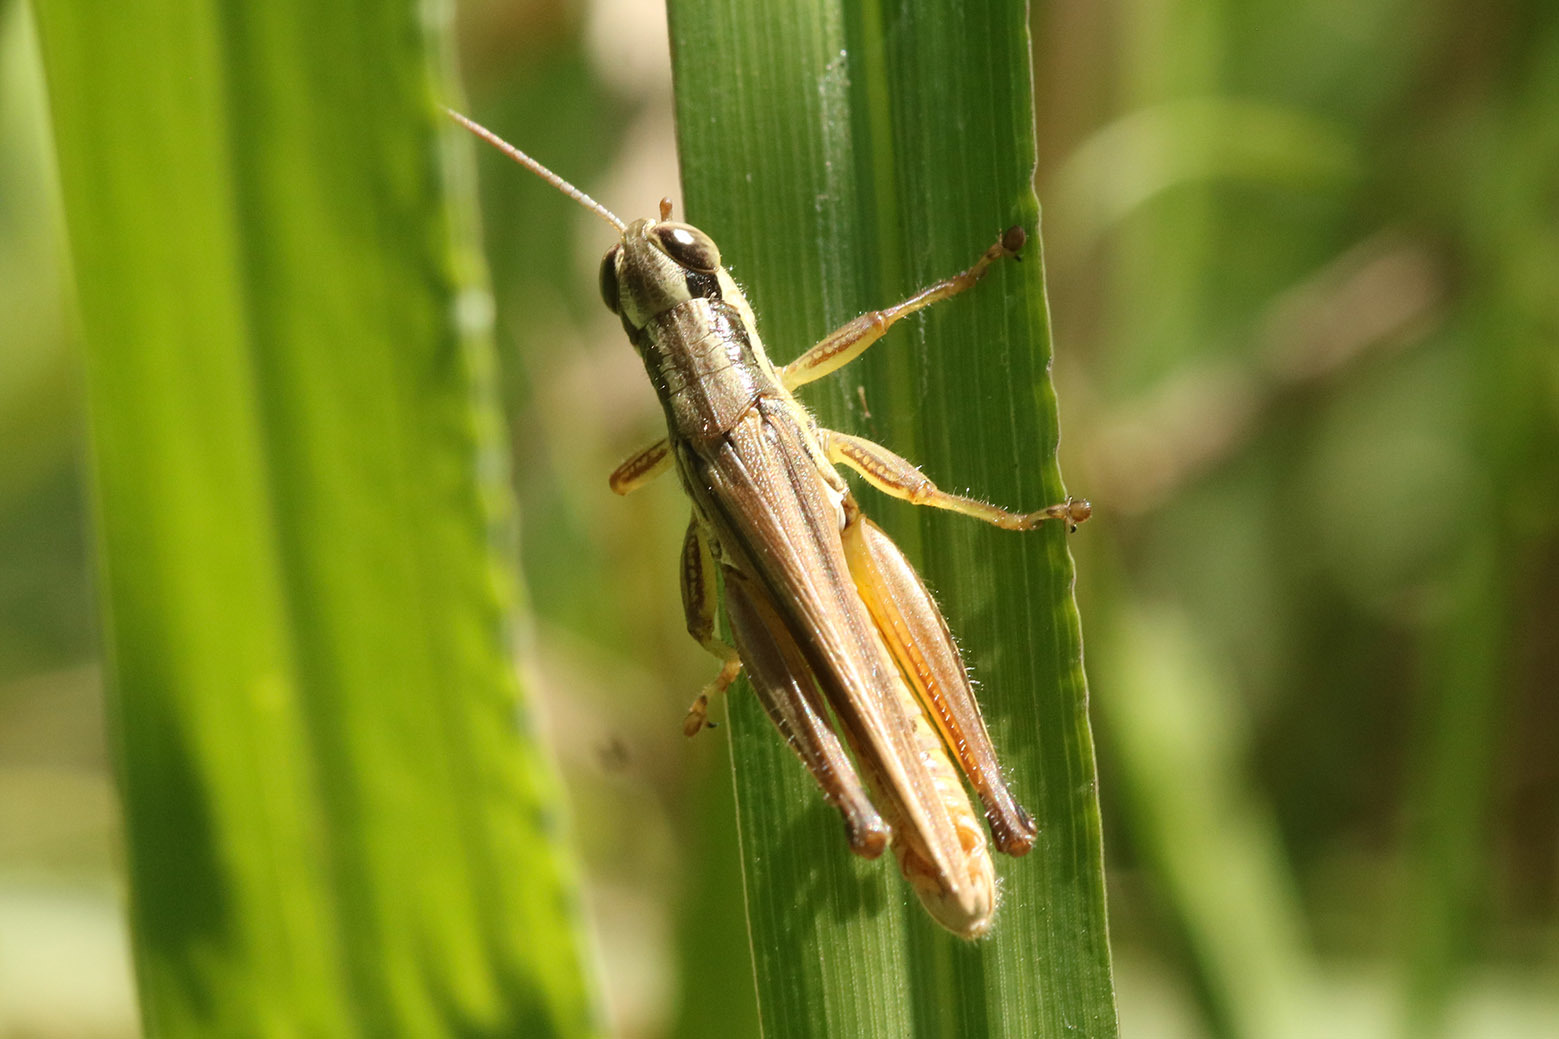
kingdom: Animalia
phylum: Arthropoda
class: Insecta
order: Orthoptera
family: Acrididae
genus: Scotussa
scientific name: Scotussa lemniscata
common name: Slender orange-legged grasshopper
